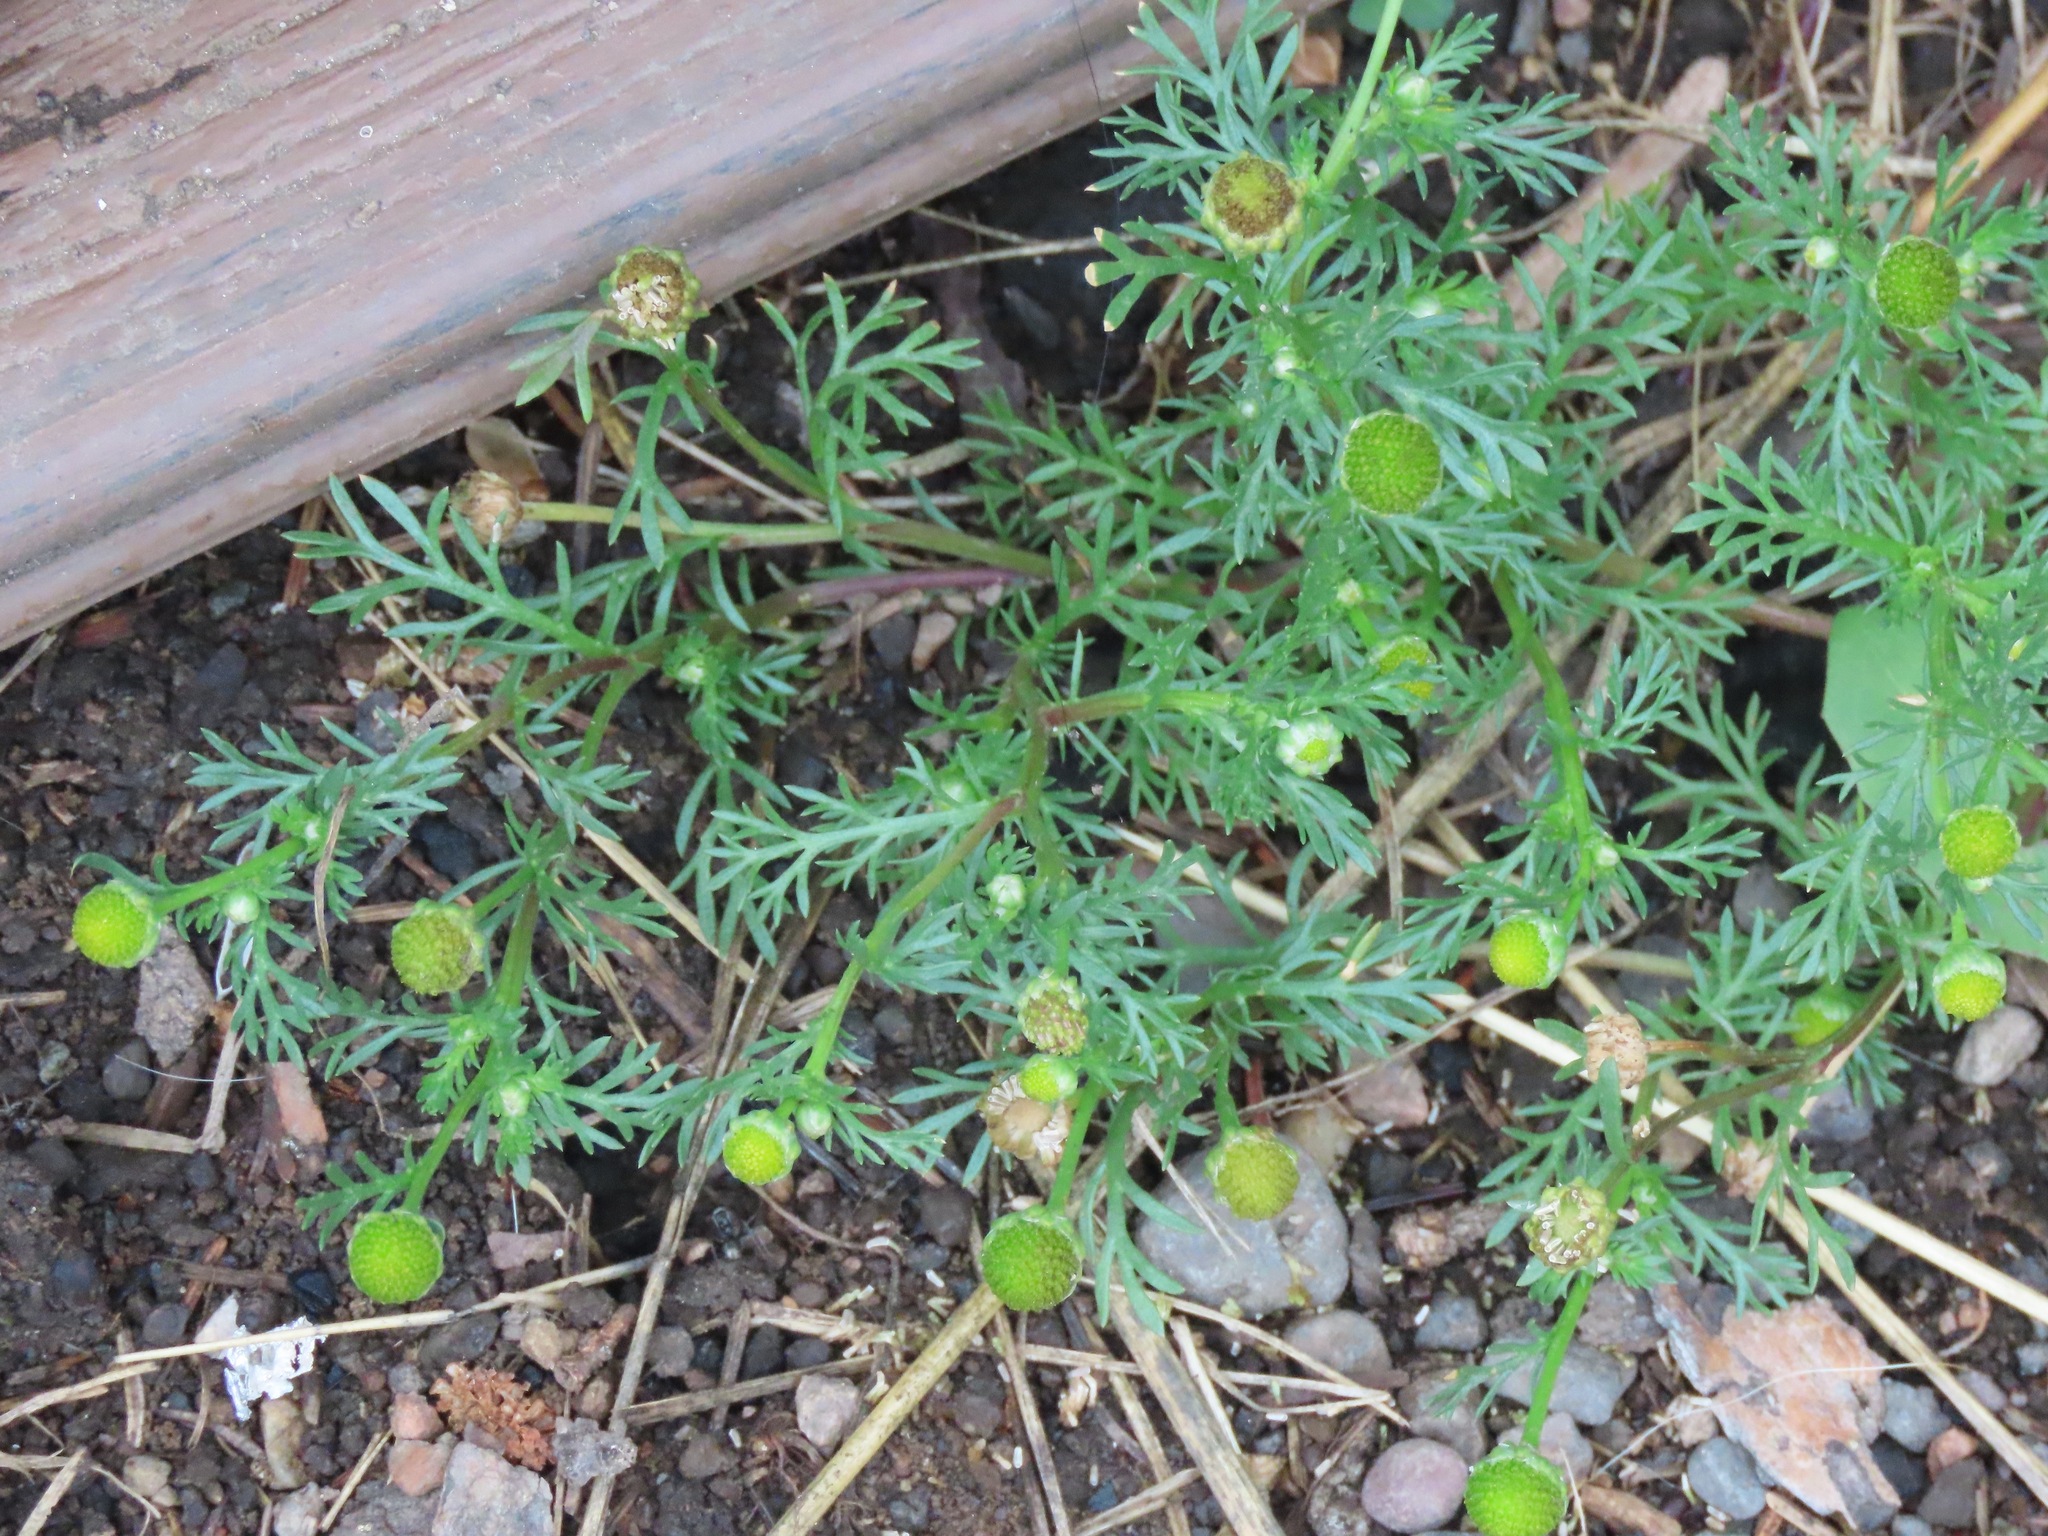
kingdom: Plantae
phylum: Tracheophyta
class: Magnoliopsida
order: Asterales
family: Asteraceae
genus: Matricaria
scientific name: Matricaria discoidea
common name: Disc mayweed
